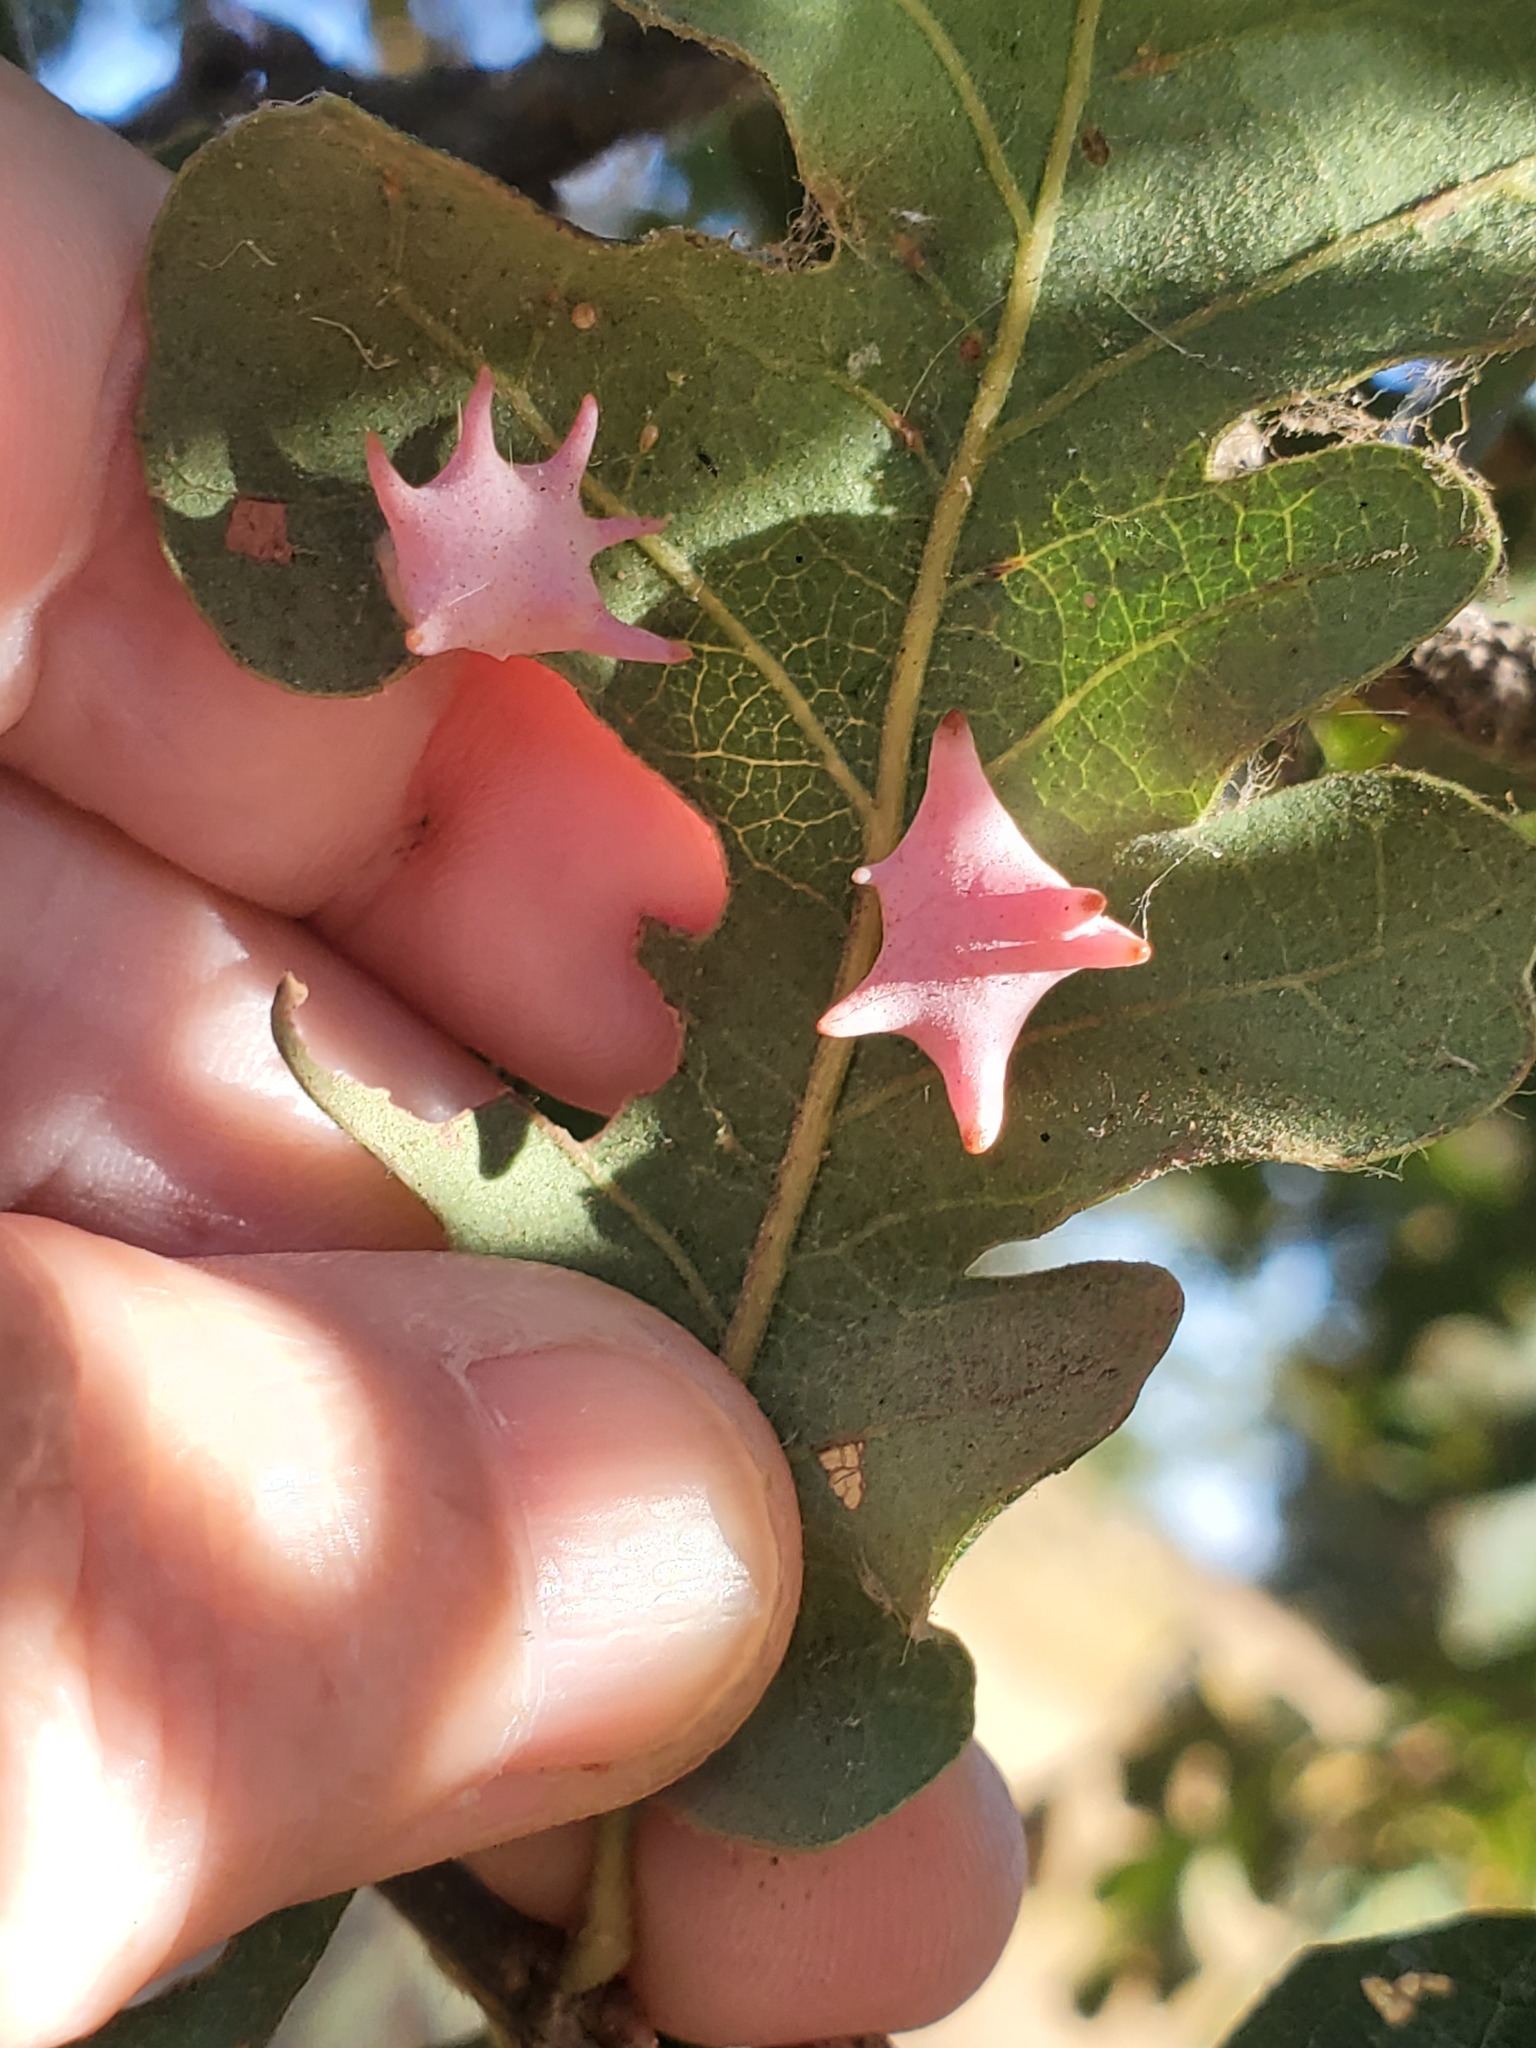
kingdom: Animalia
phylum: Arthropoda
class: Insecta
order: Hymenoptera
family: Cynipidae
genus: Cynips
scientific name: Cynips douglasi
